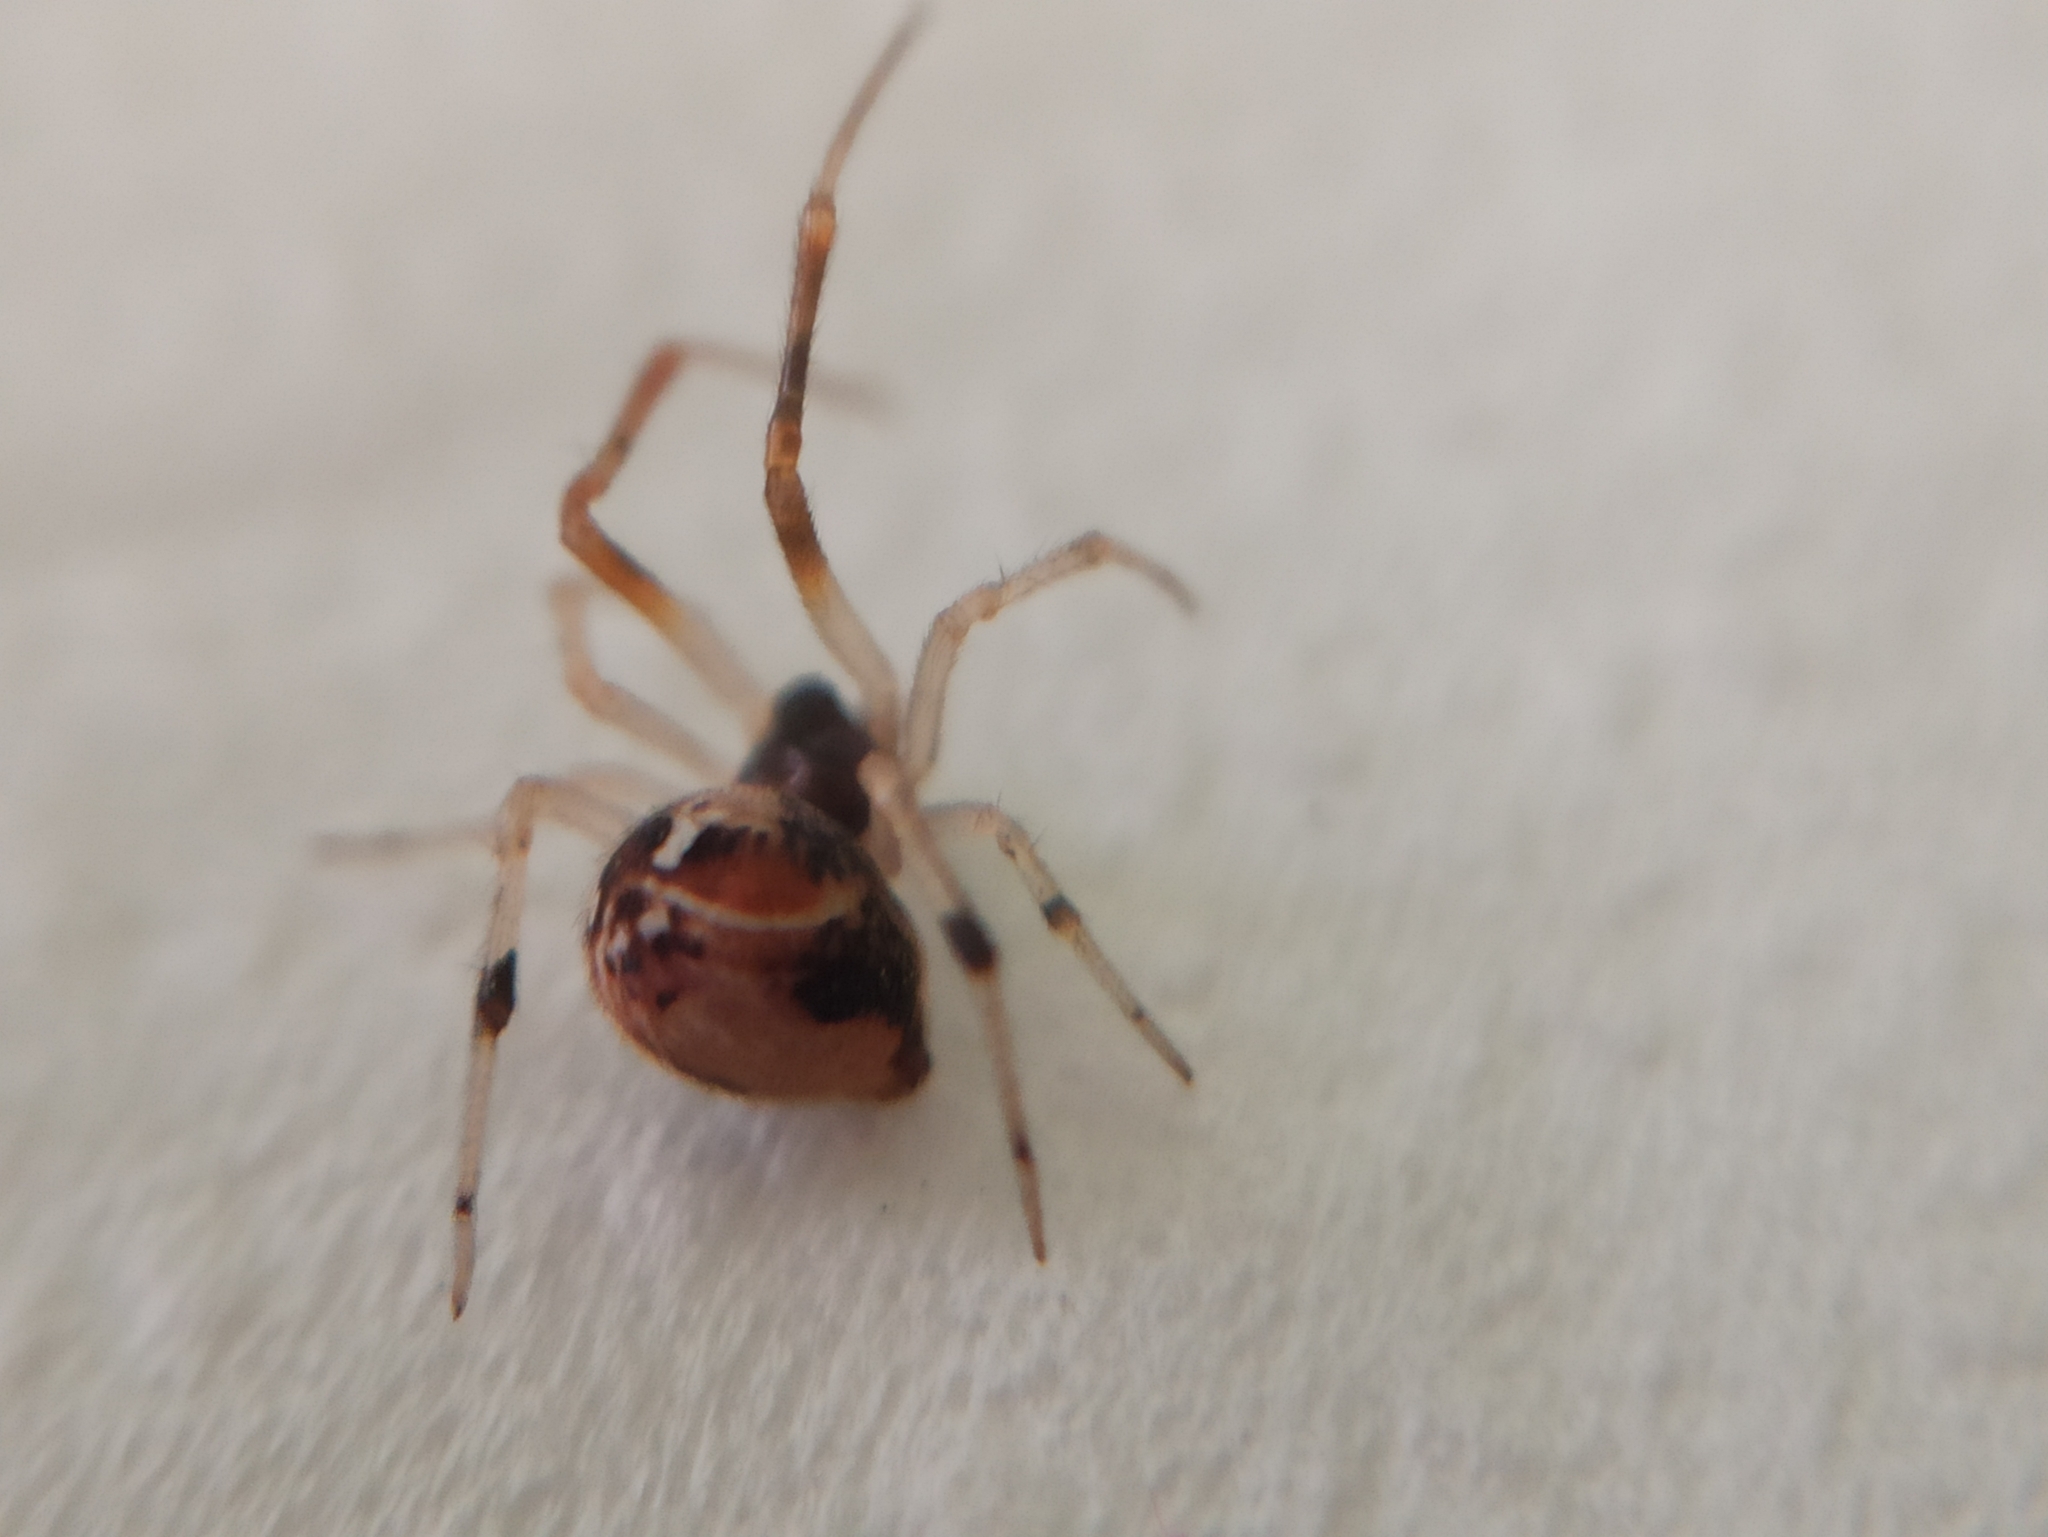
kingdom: Animalia
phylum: Arthropoda
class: Arachnida
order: Araneae
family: Theridiidae
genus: Parasteatoda
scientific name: Parasteatoda lunata
